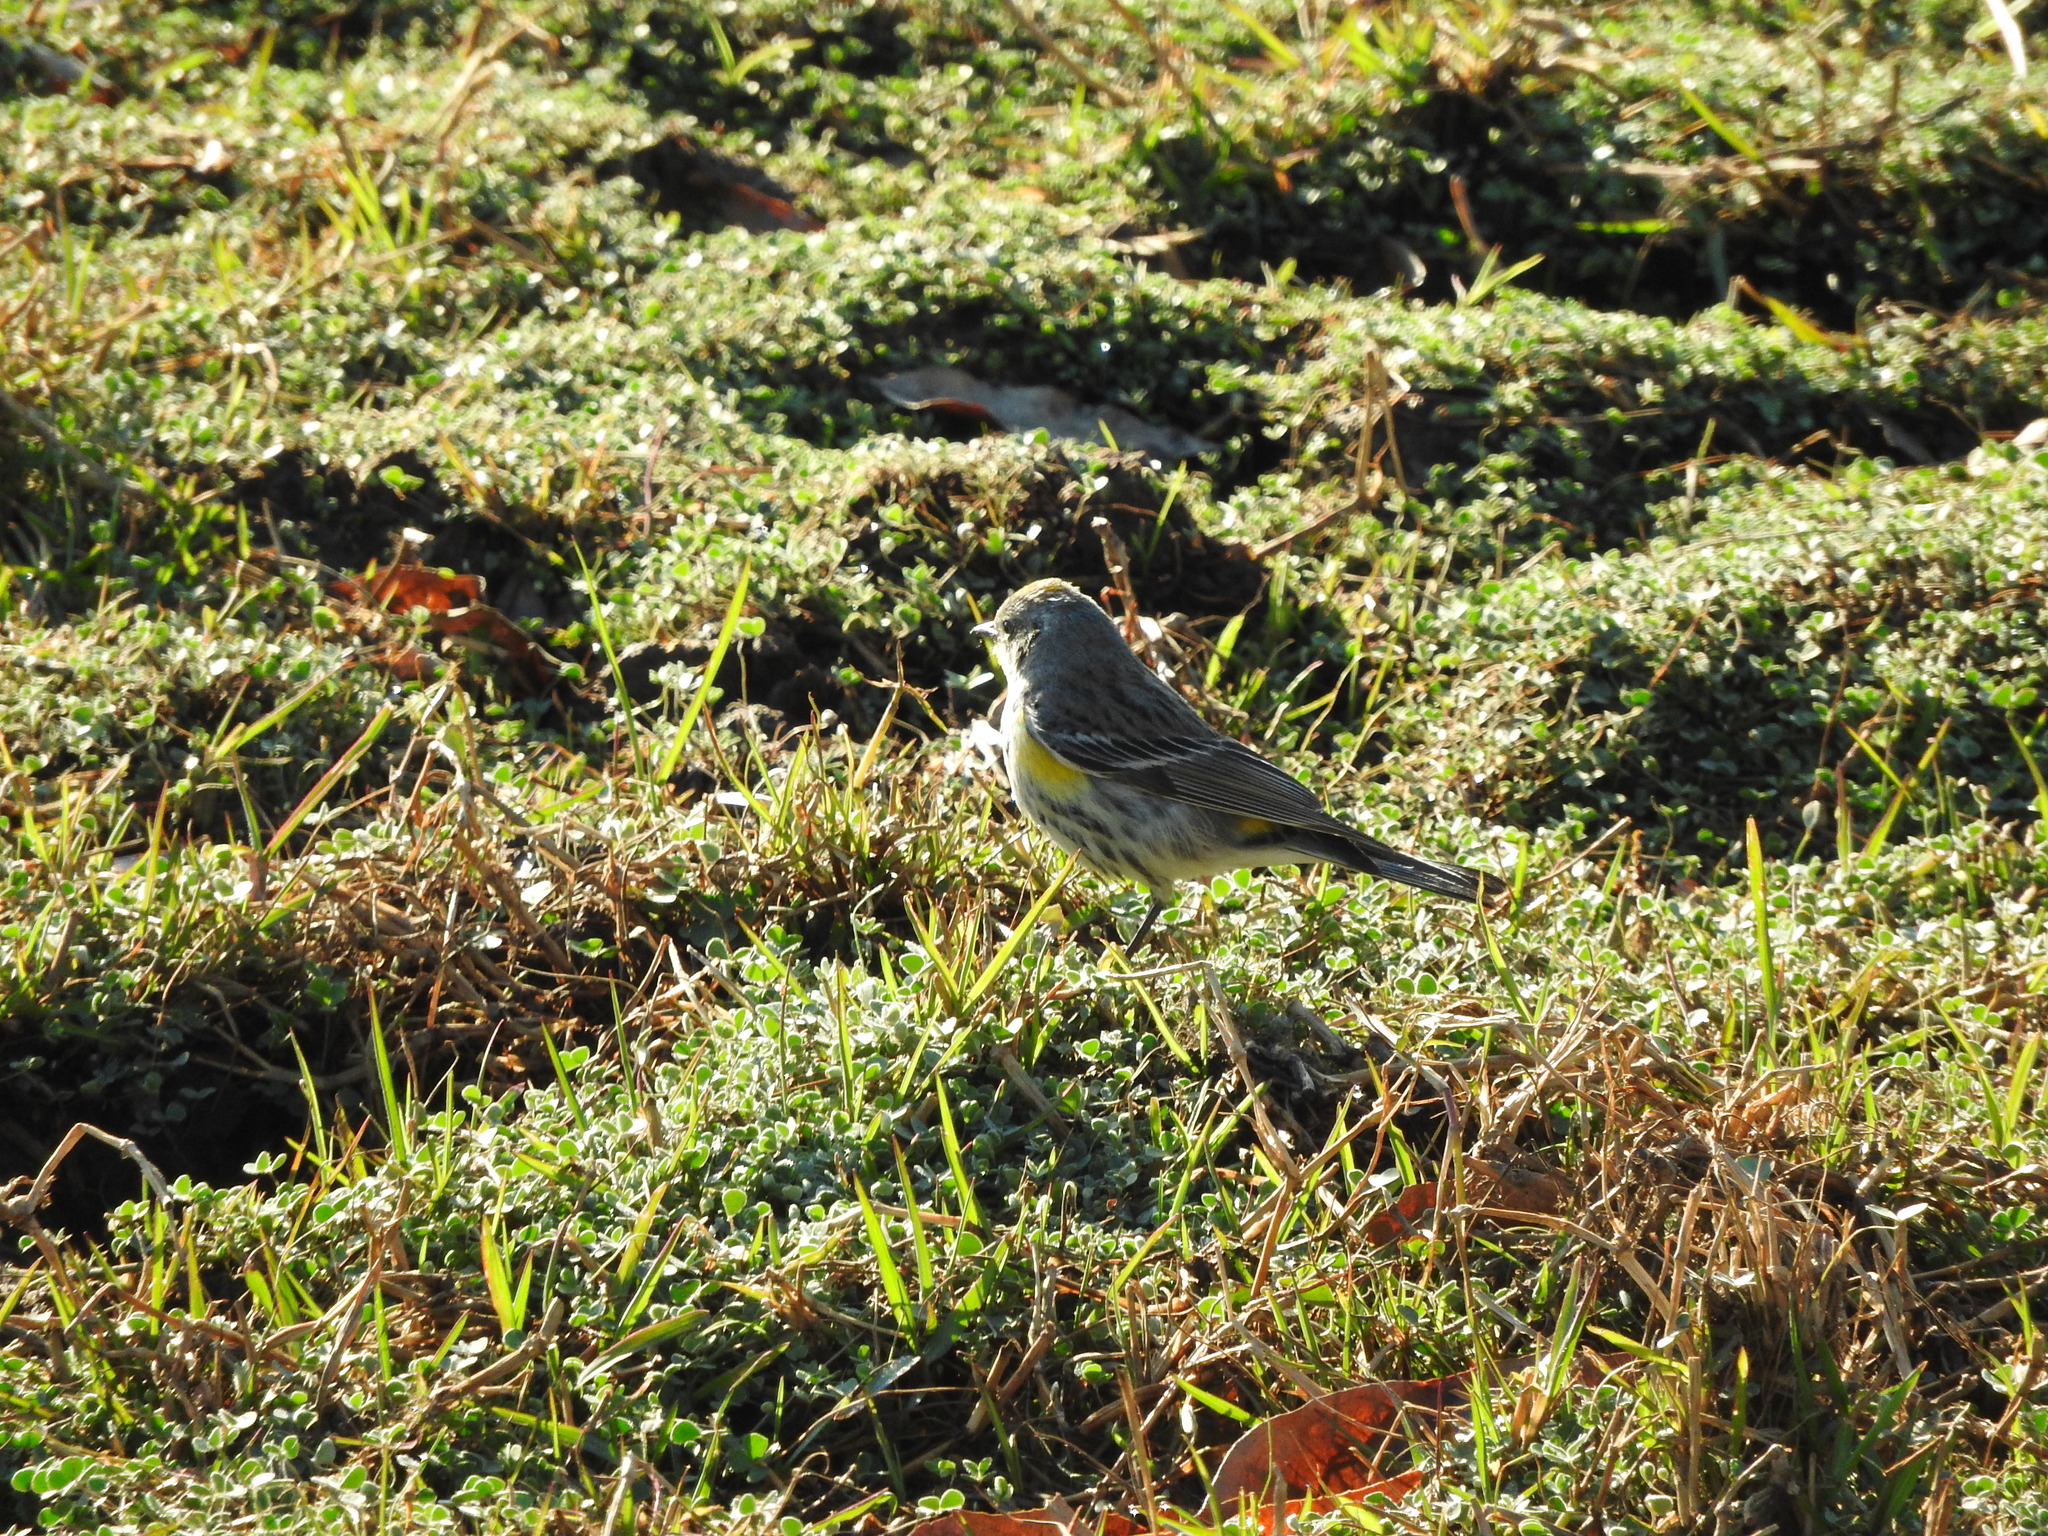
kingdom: Animalia
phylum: Chordata
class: Aves
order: Passeriformes
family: Parulidae
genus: Setophaga
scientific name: Setophaga coronata
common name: Myrtle warbler
